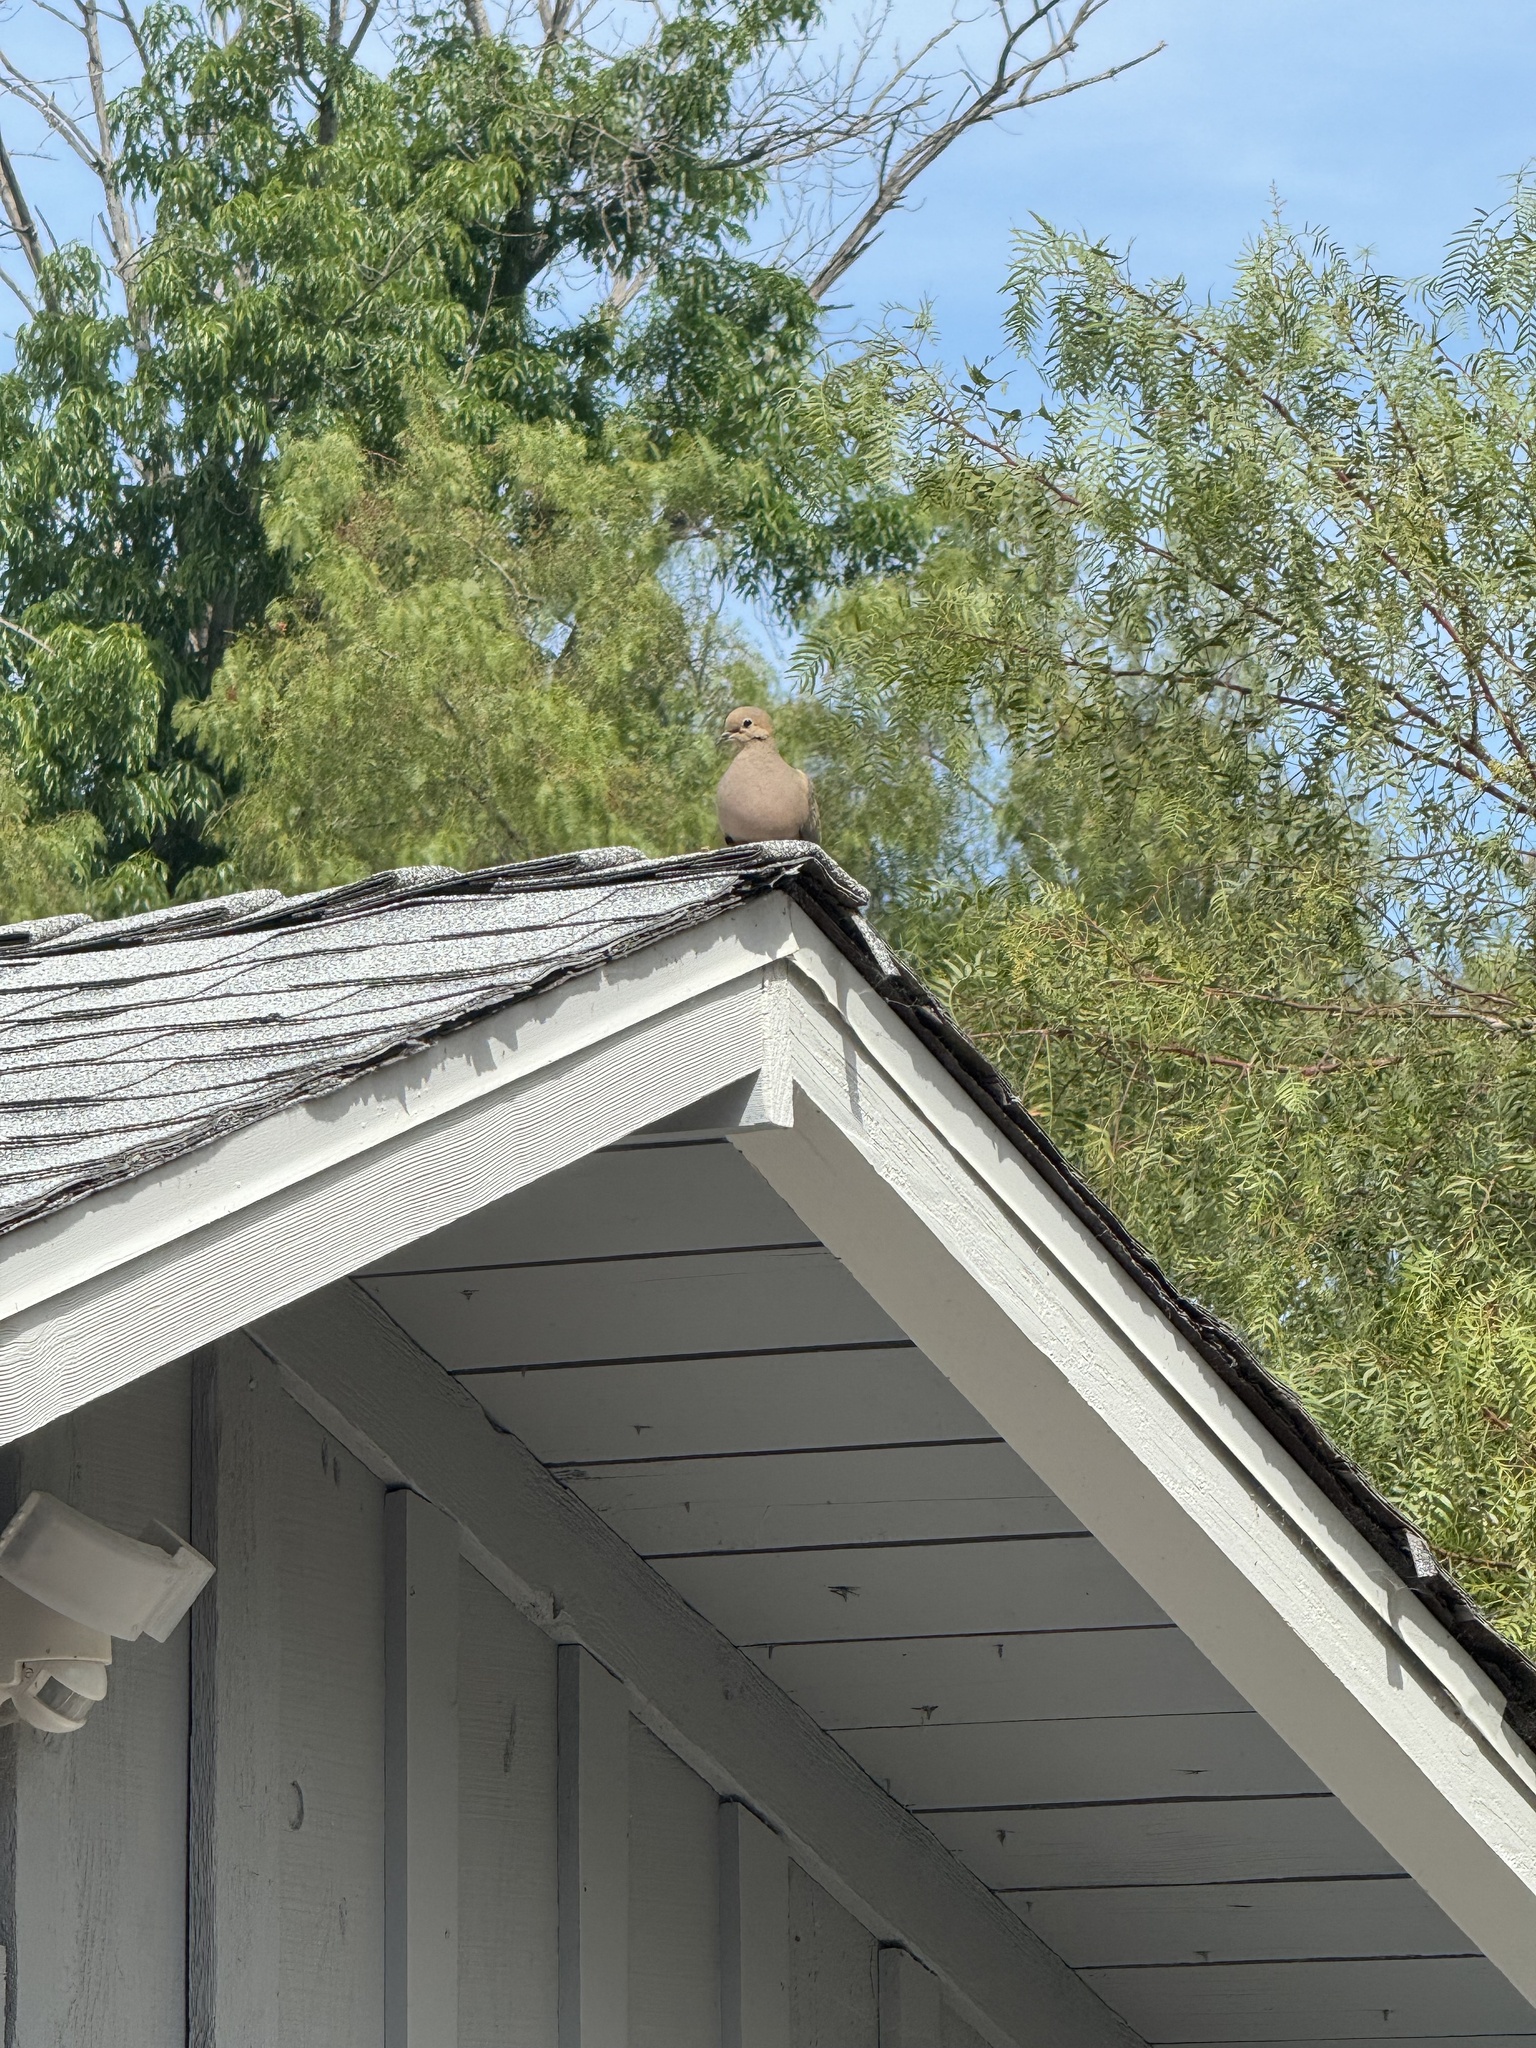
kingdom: Animalia
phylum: Chordata
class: Aves
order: Columbiformes
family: Columbidae
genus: Zenaida
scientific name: Zenaida macroura
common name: Mourning dove
